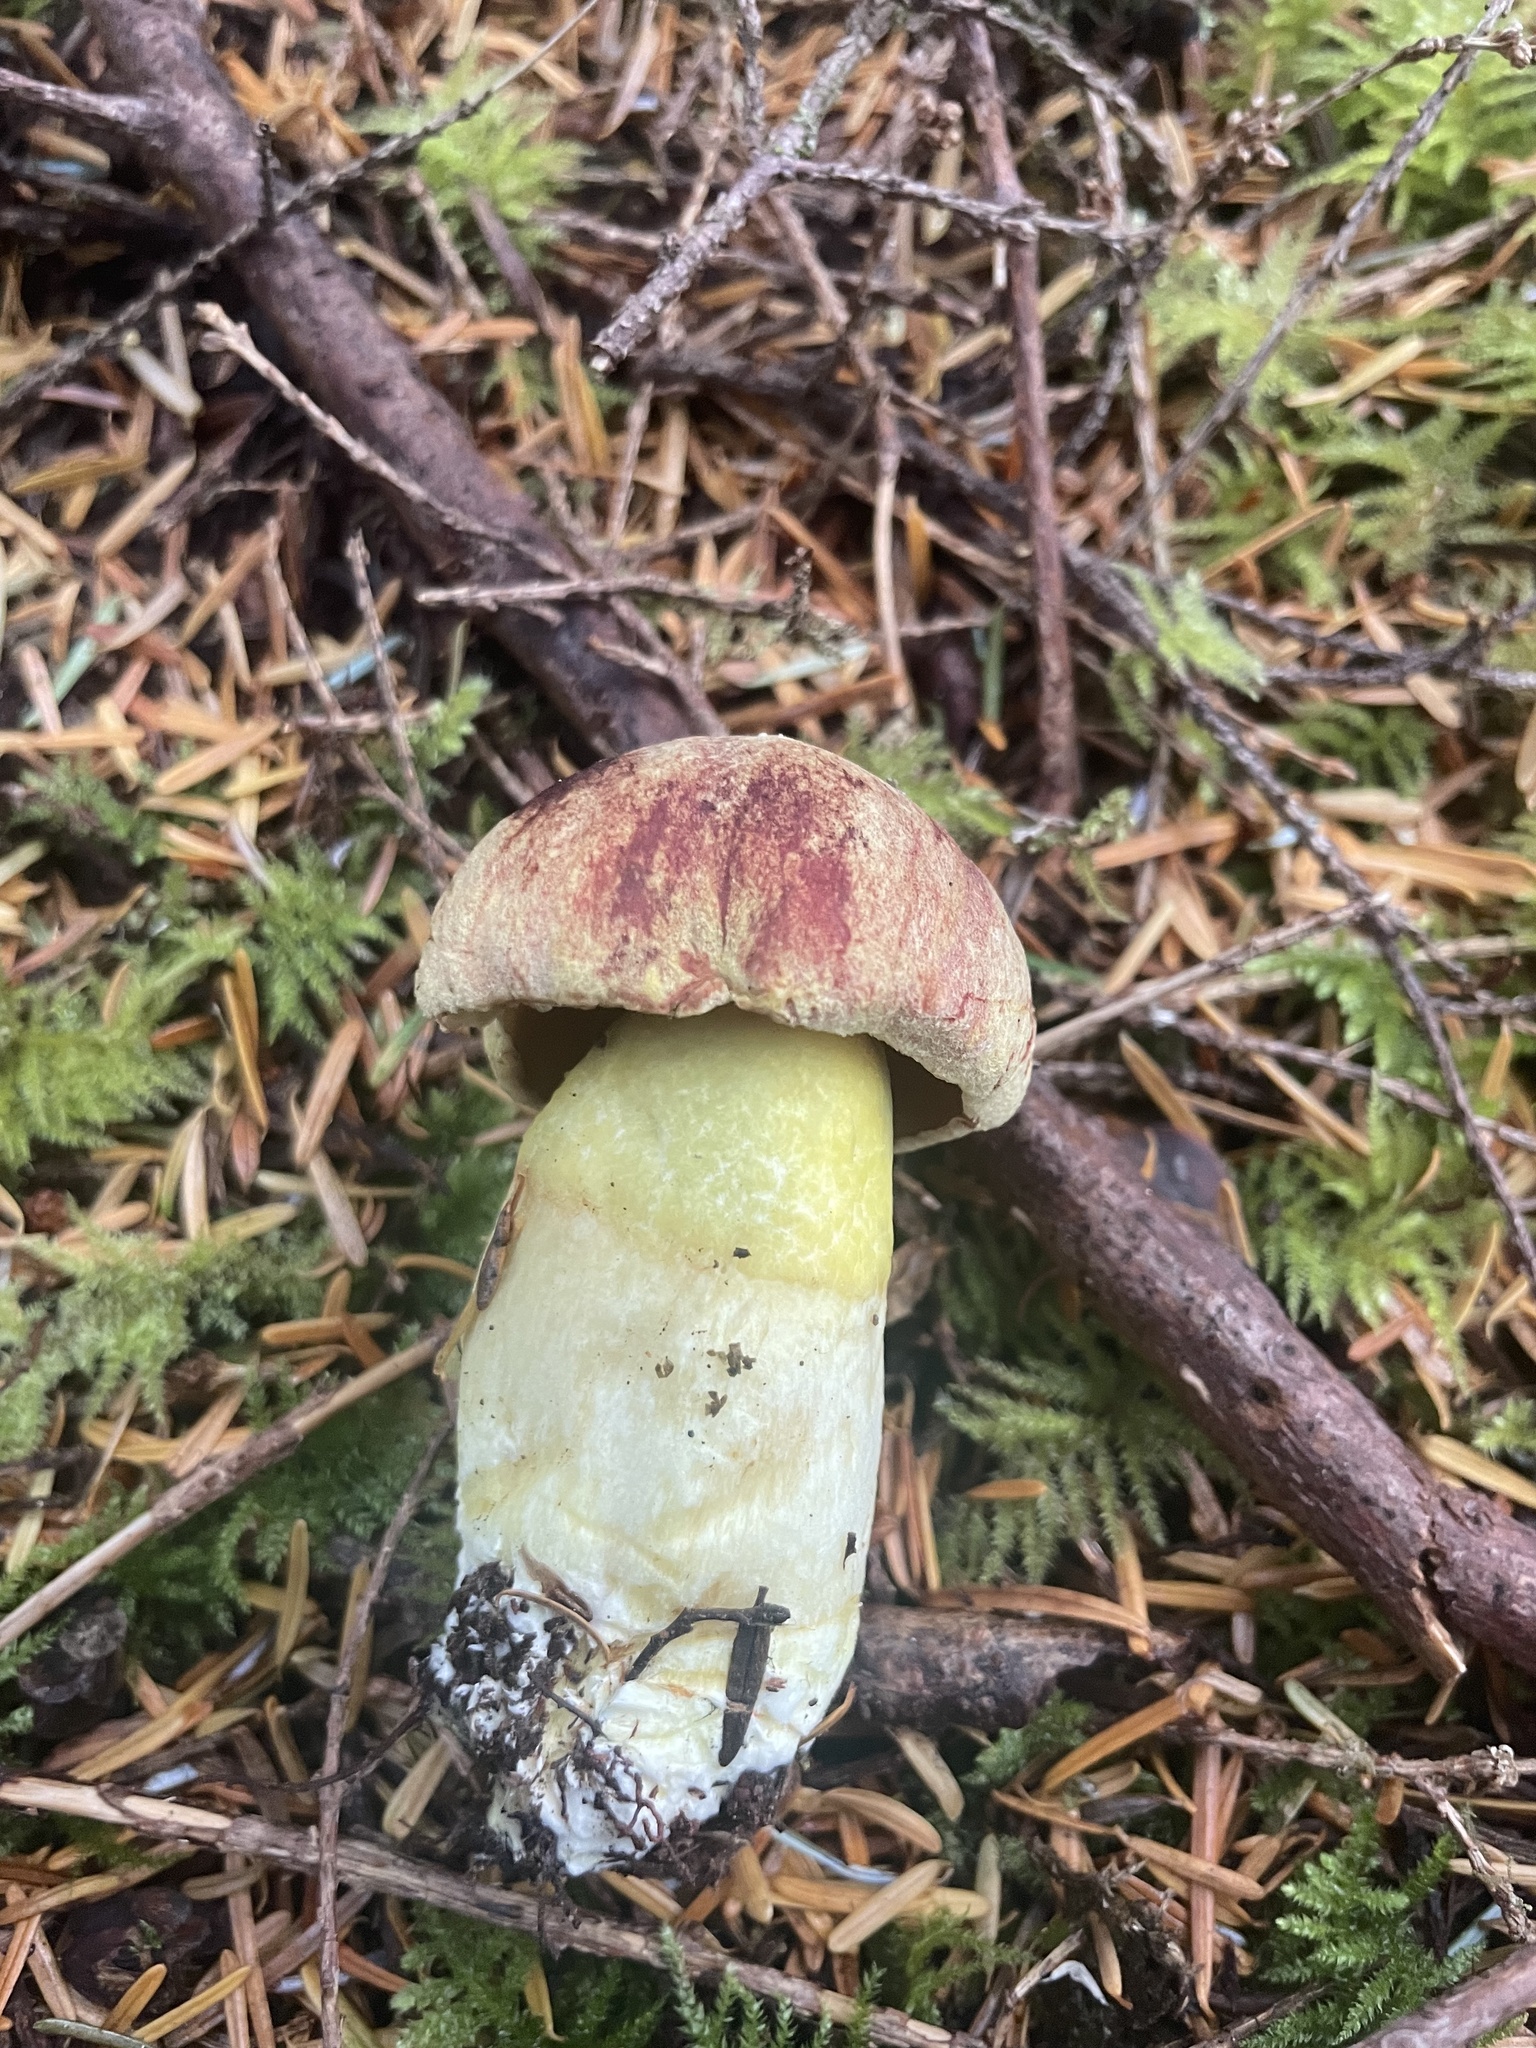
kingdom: Fungi
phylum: Basidiomycota
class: Agaricomycetes
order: Boletales
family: Boletaceae
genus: Boletus
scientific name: Boletus smithii
